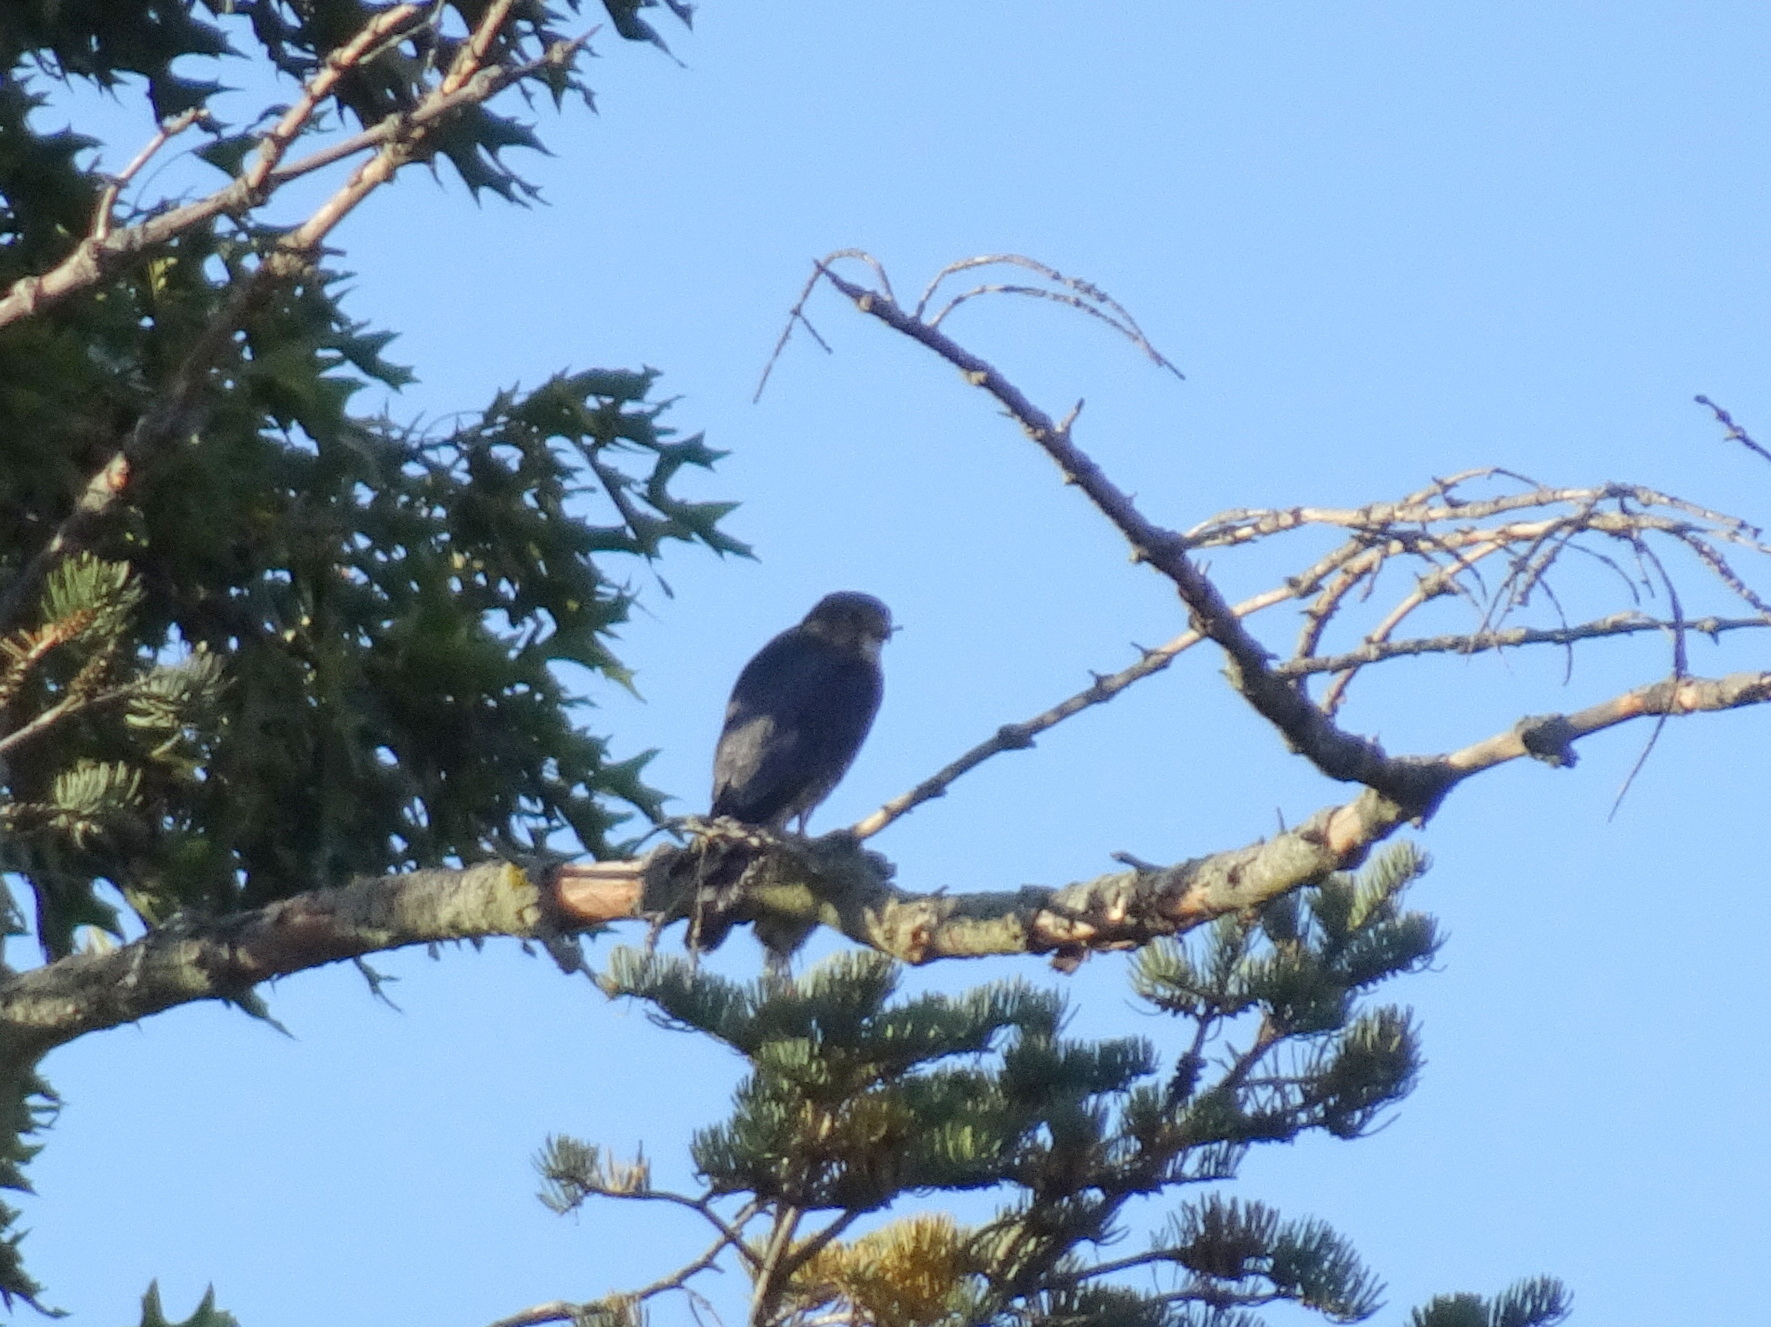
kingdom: Animalia
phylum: Chordata
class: Aves
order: Falconiformes
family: Falconidae
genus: Falco
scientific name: Falco columbarius
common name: Merlin
